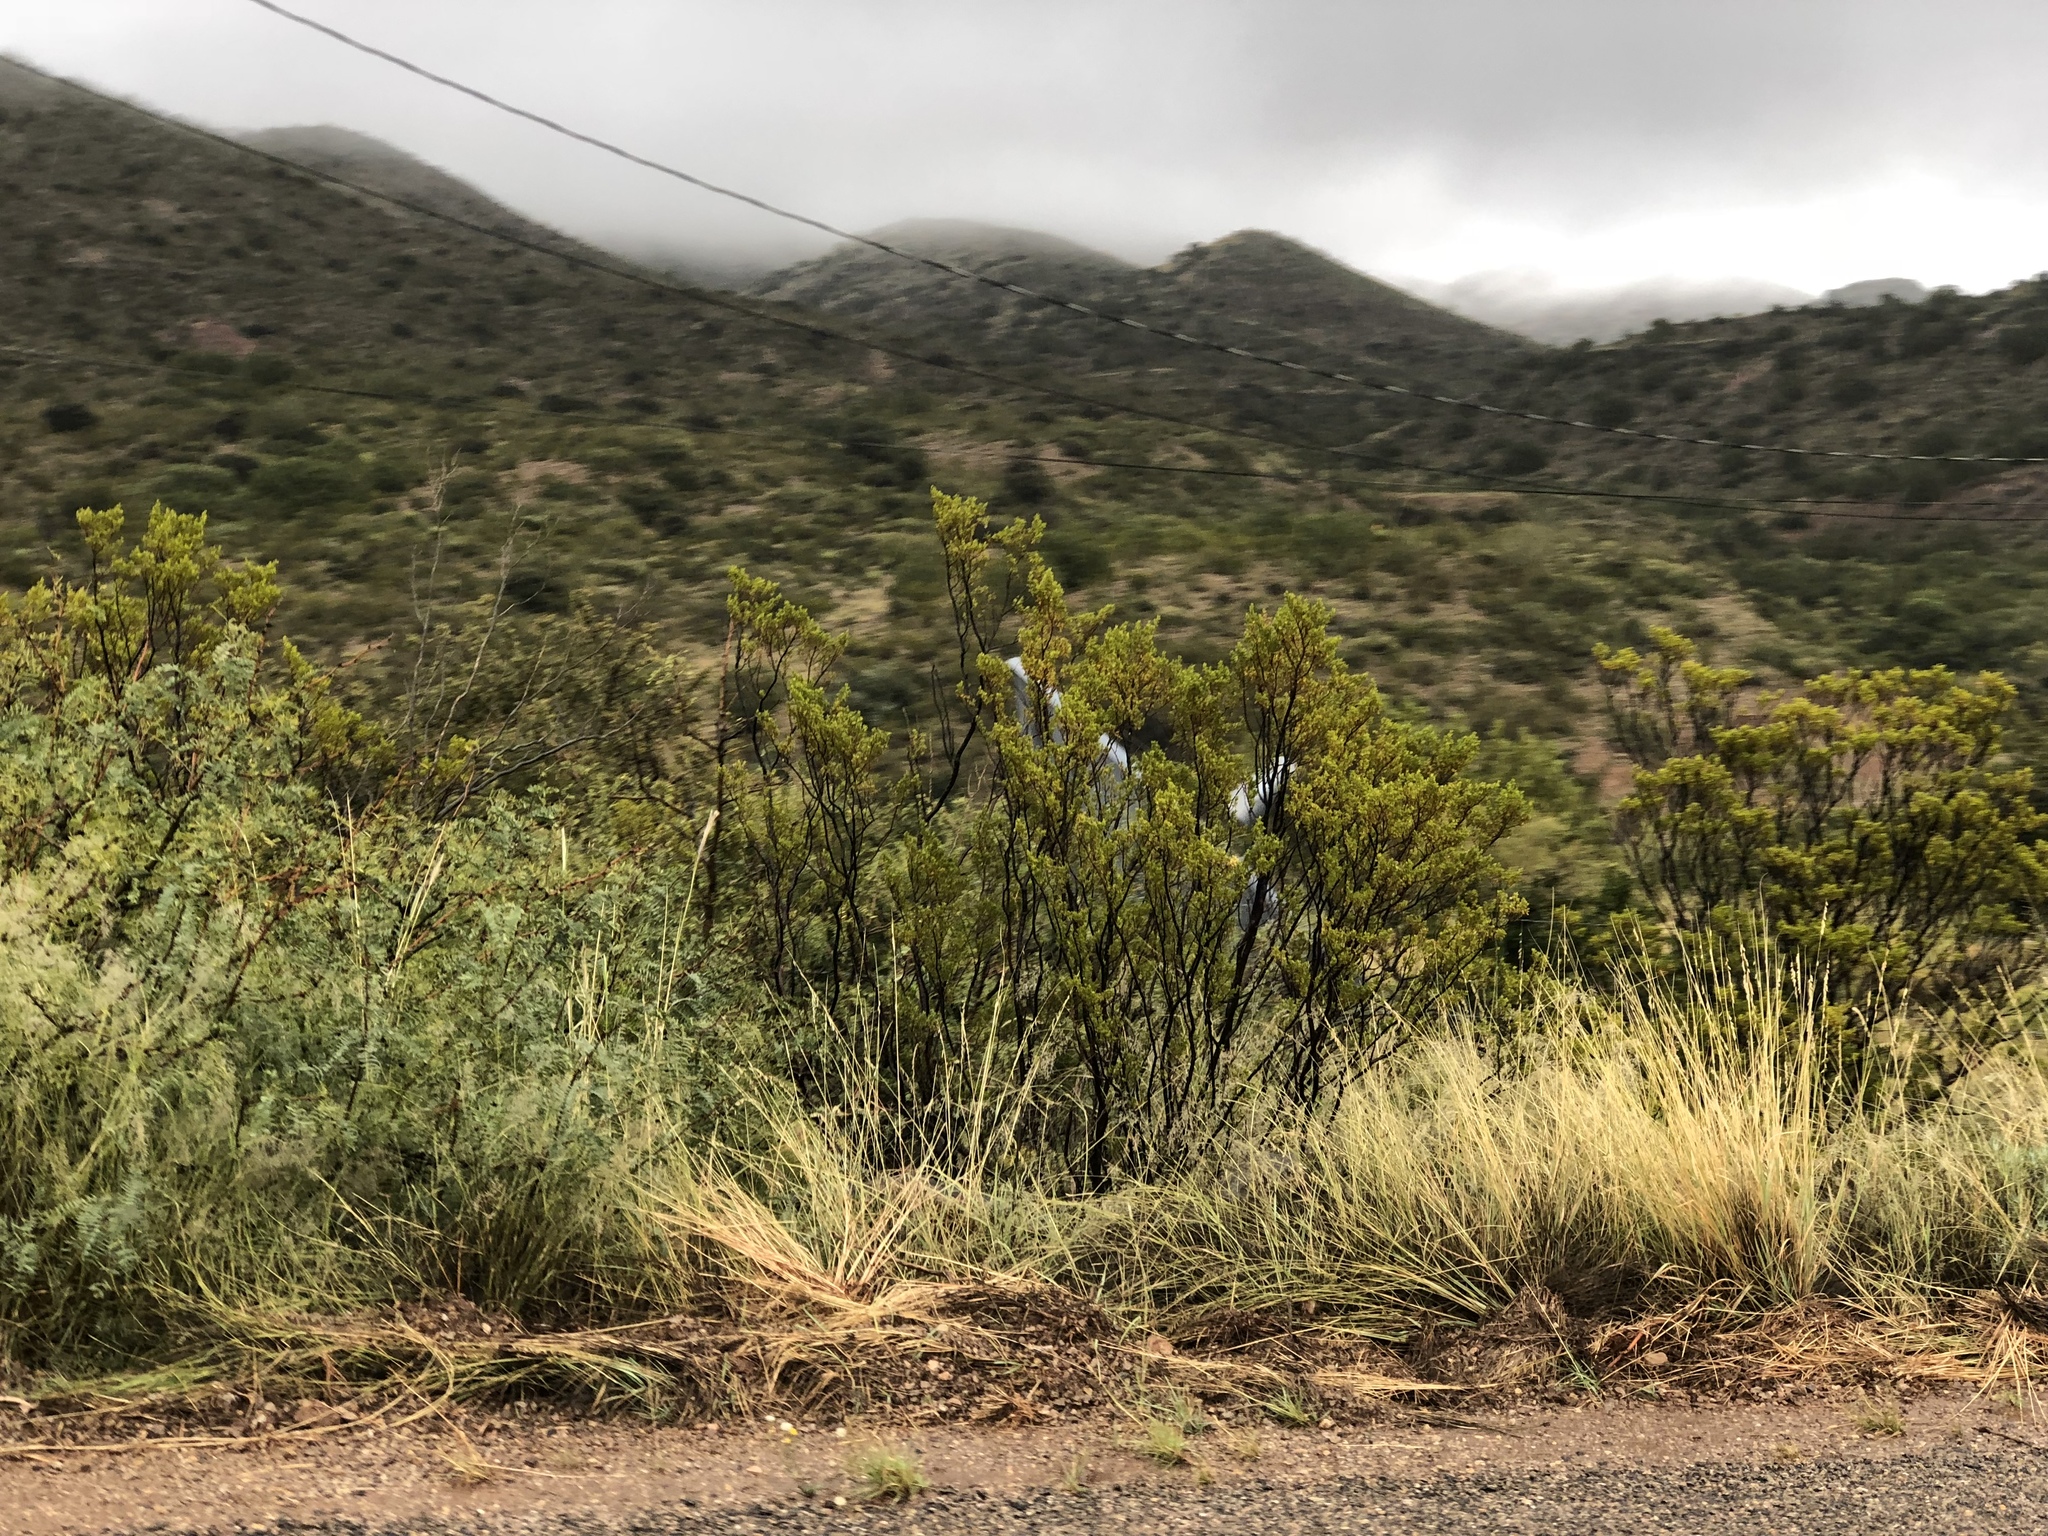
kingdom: Plantae
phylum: Tracheophyta
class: Magnoliopsida
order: Zygophyllales
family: Zygophyllaceae
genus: Larrea
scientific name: Larrea tridentata
